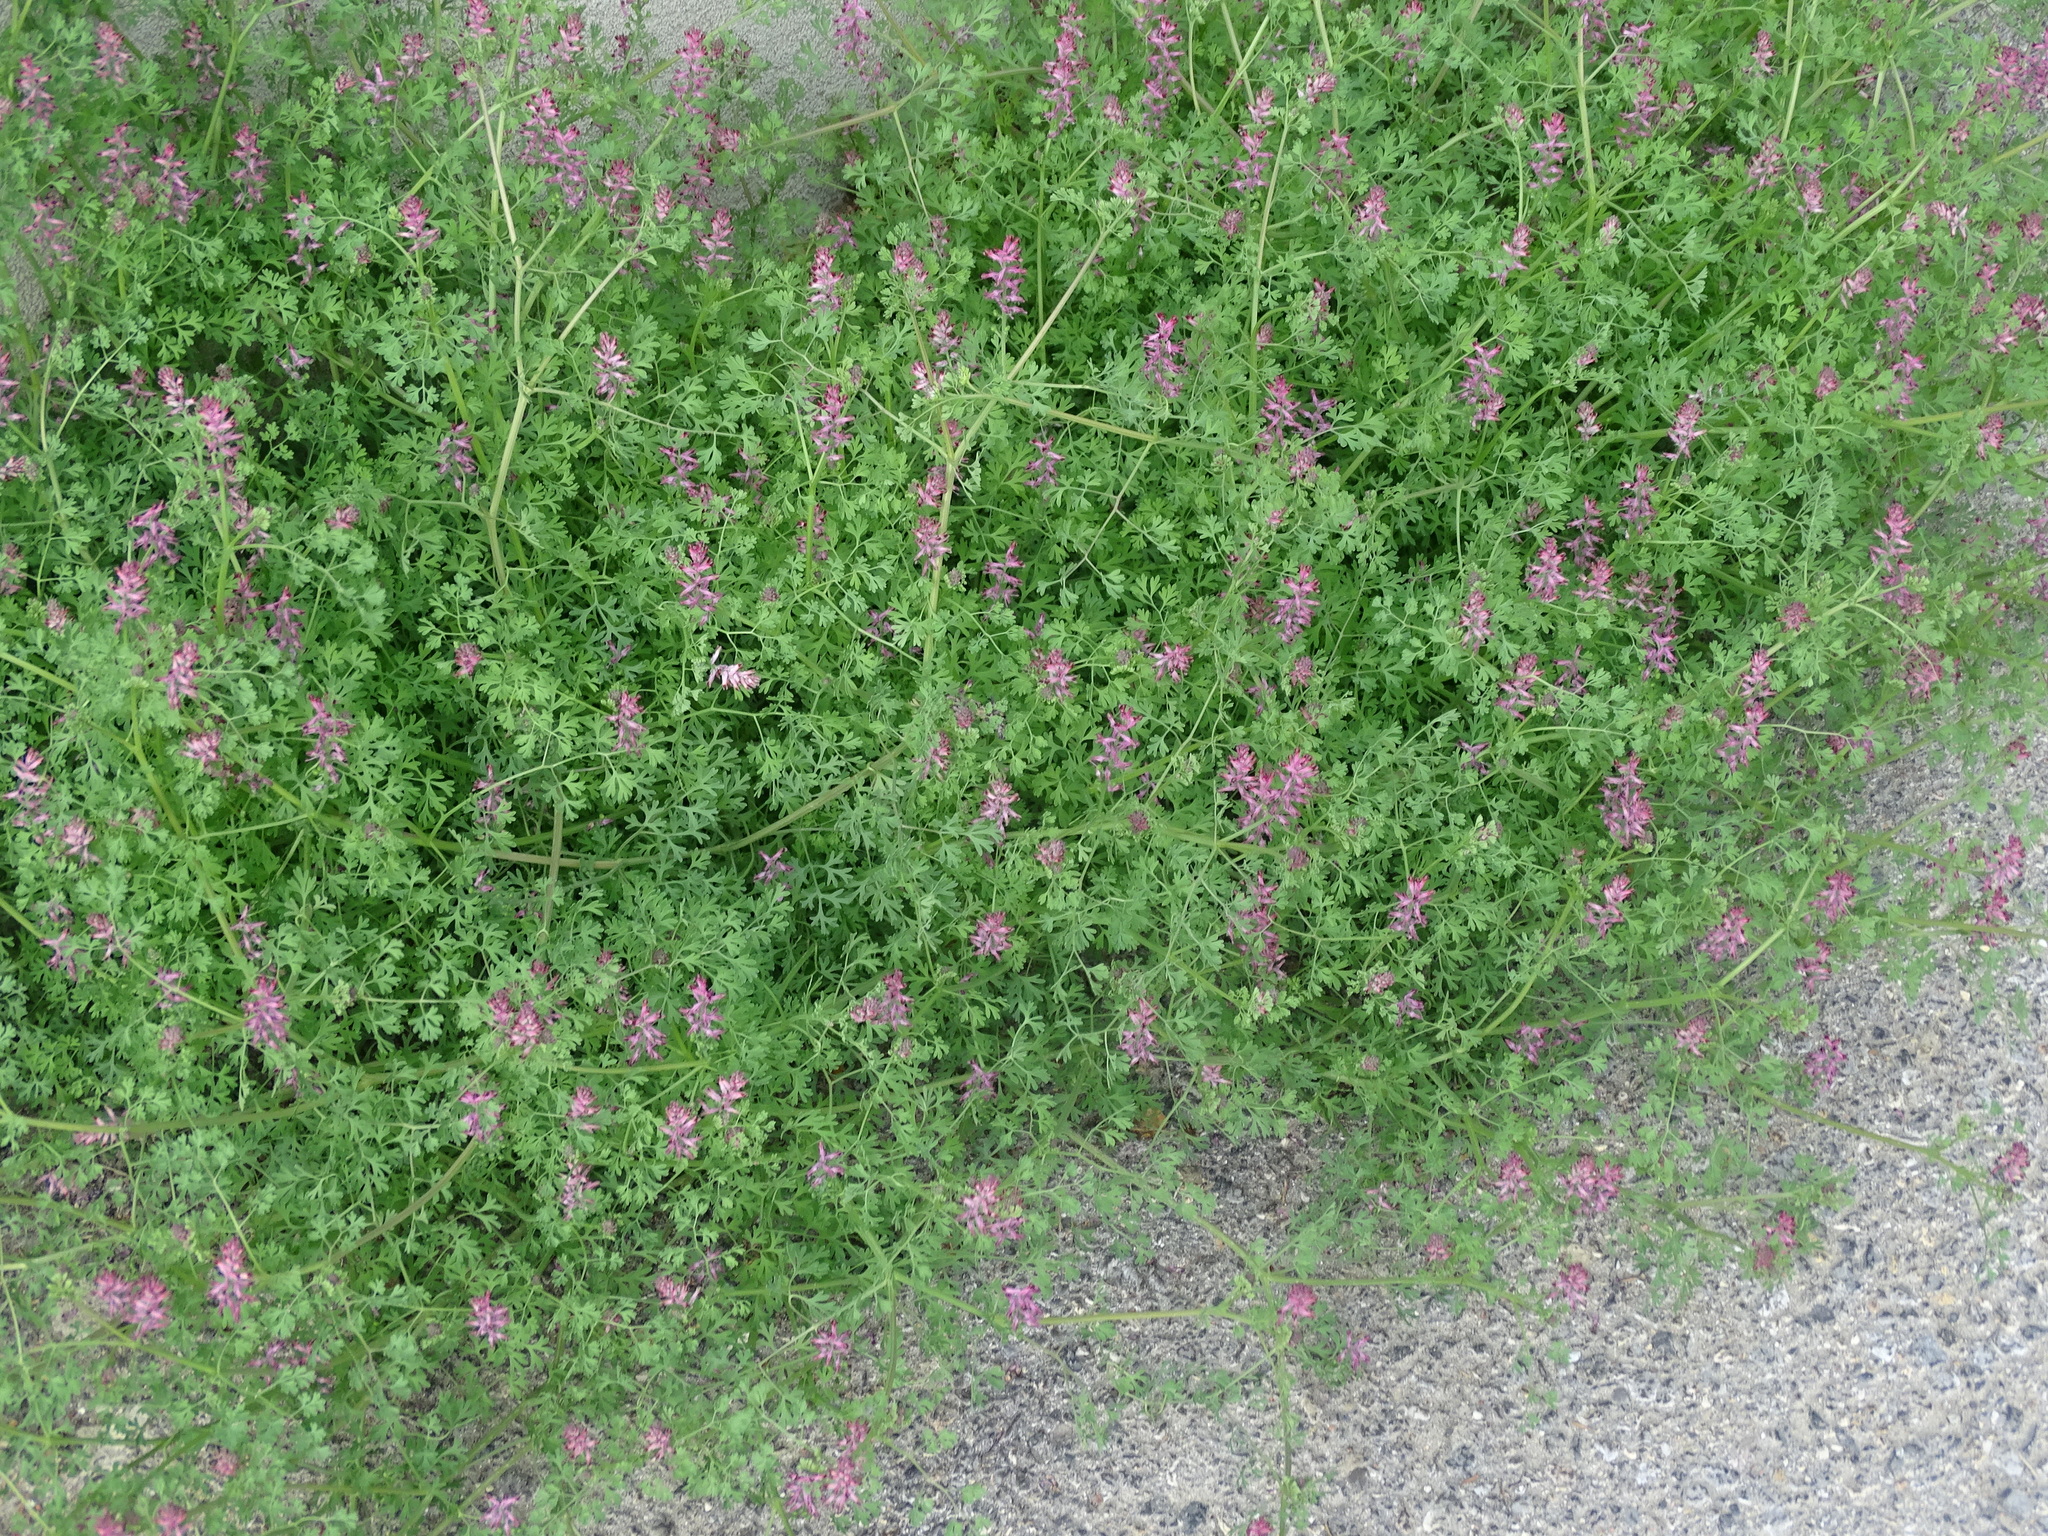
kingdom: Plantae
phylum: Tracheophyta
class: Magnoliopsida
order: Ranunculales
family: Papaveraceae
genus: Fumaria
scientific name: Fumaria officinalis
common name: Common fumitory
